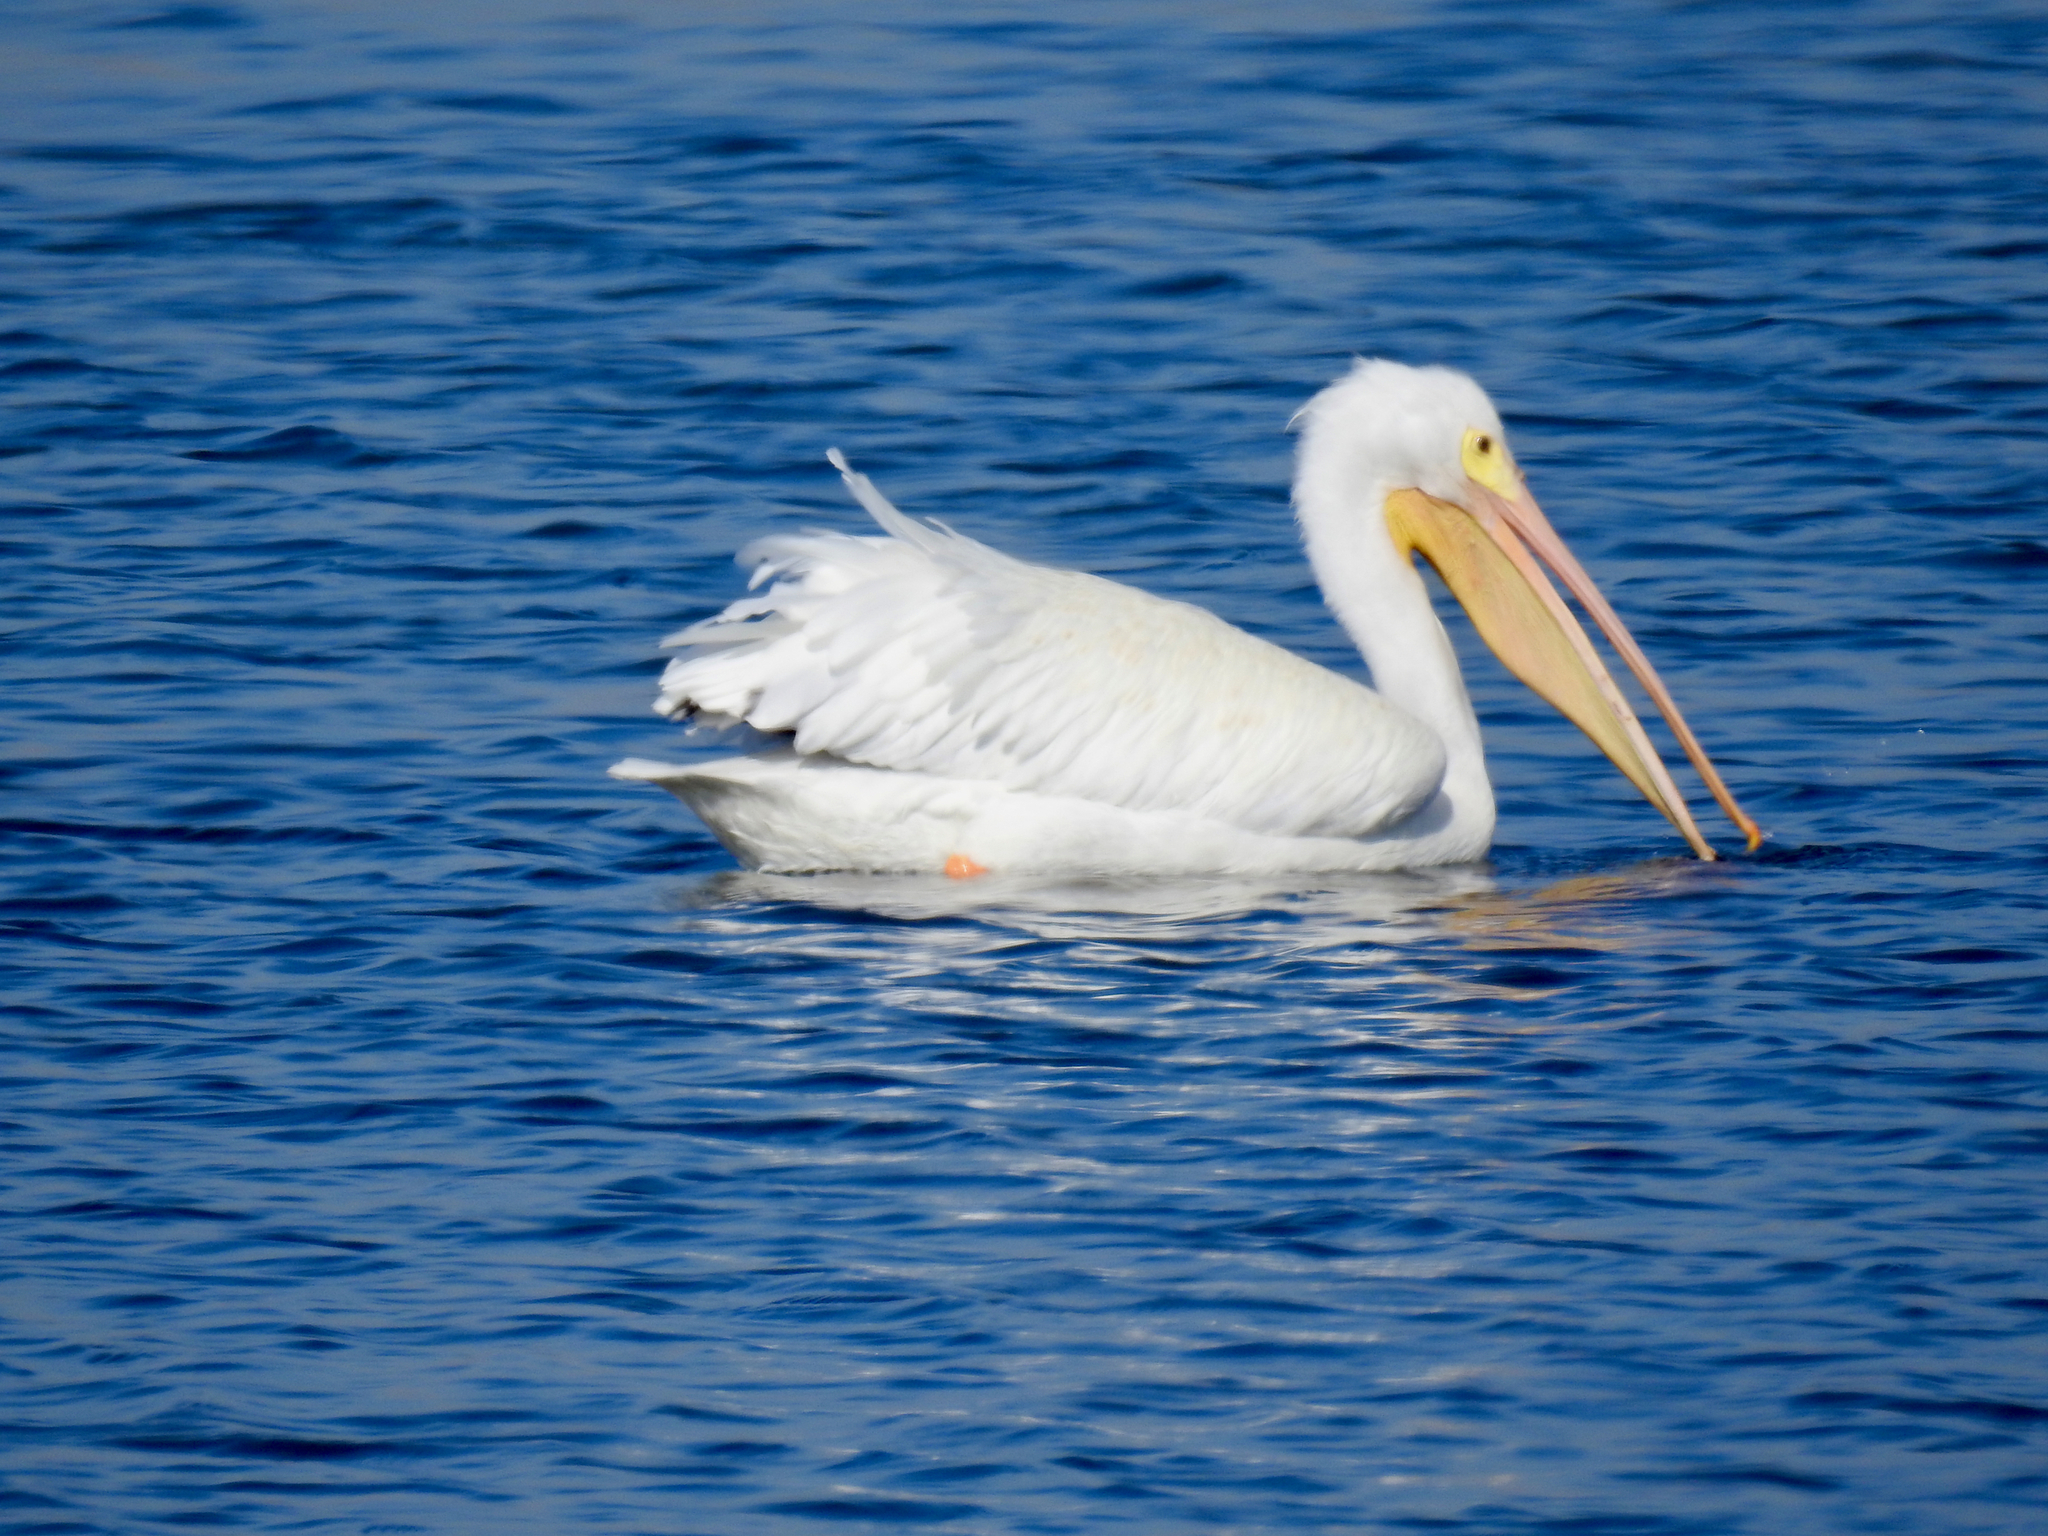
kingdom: Animalia
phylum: Chordata
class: Aves
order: Pelecaniformes
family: Pelecanidae
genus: Pelecanus
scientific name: Pelecanus erythrorhynchos
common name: American white pelican
